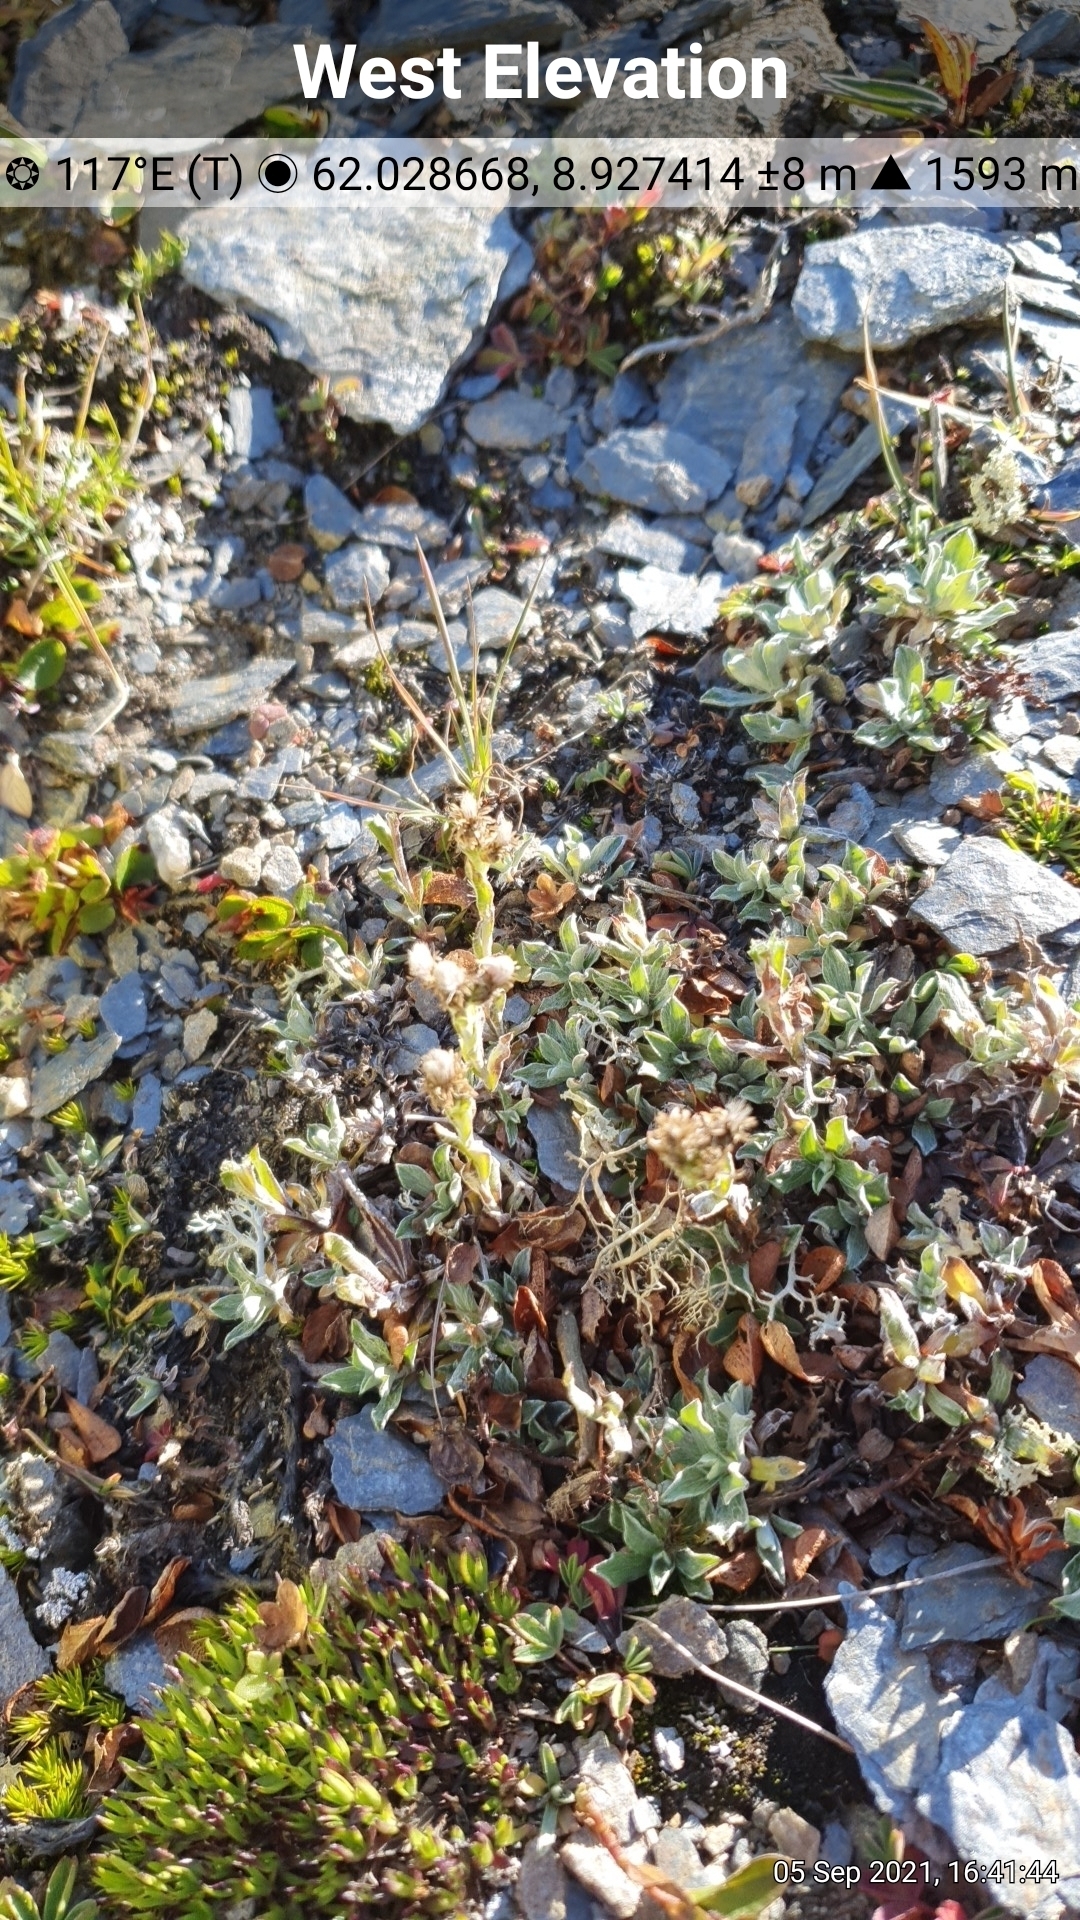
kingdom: Plantae
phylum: Tracheophyta
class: Magnoliopsida
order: Asterales
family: Asteraceae
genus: Antennaria
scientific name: Antennaria alpina
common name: Alpine pussytoes
